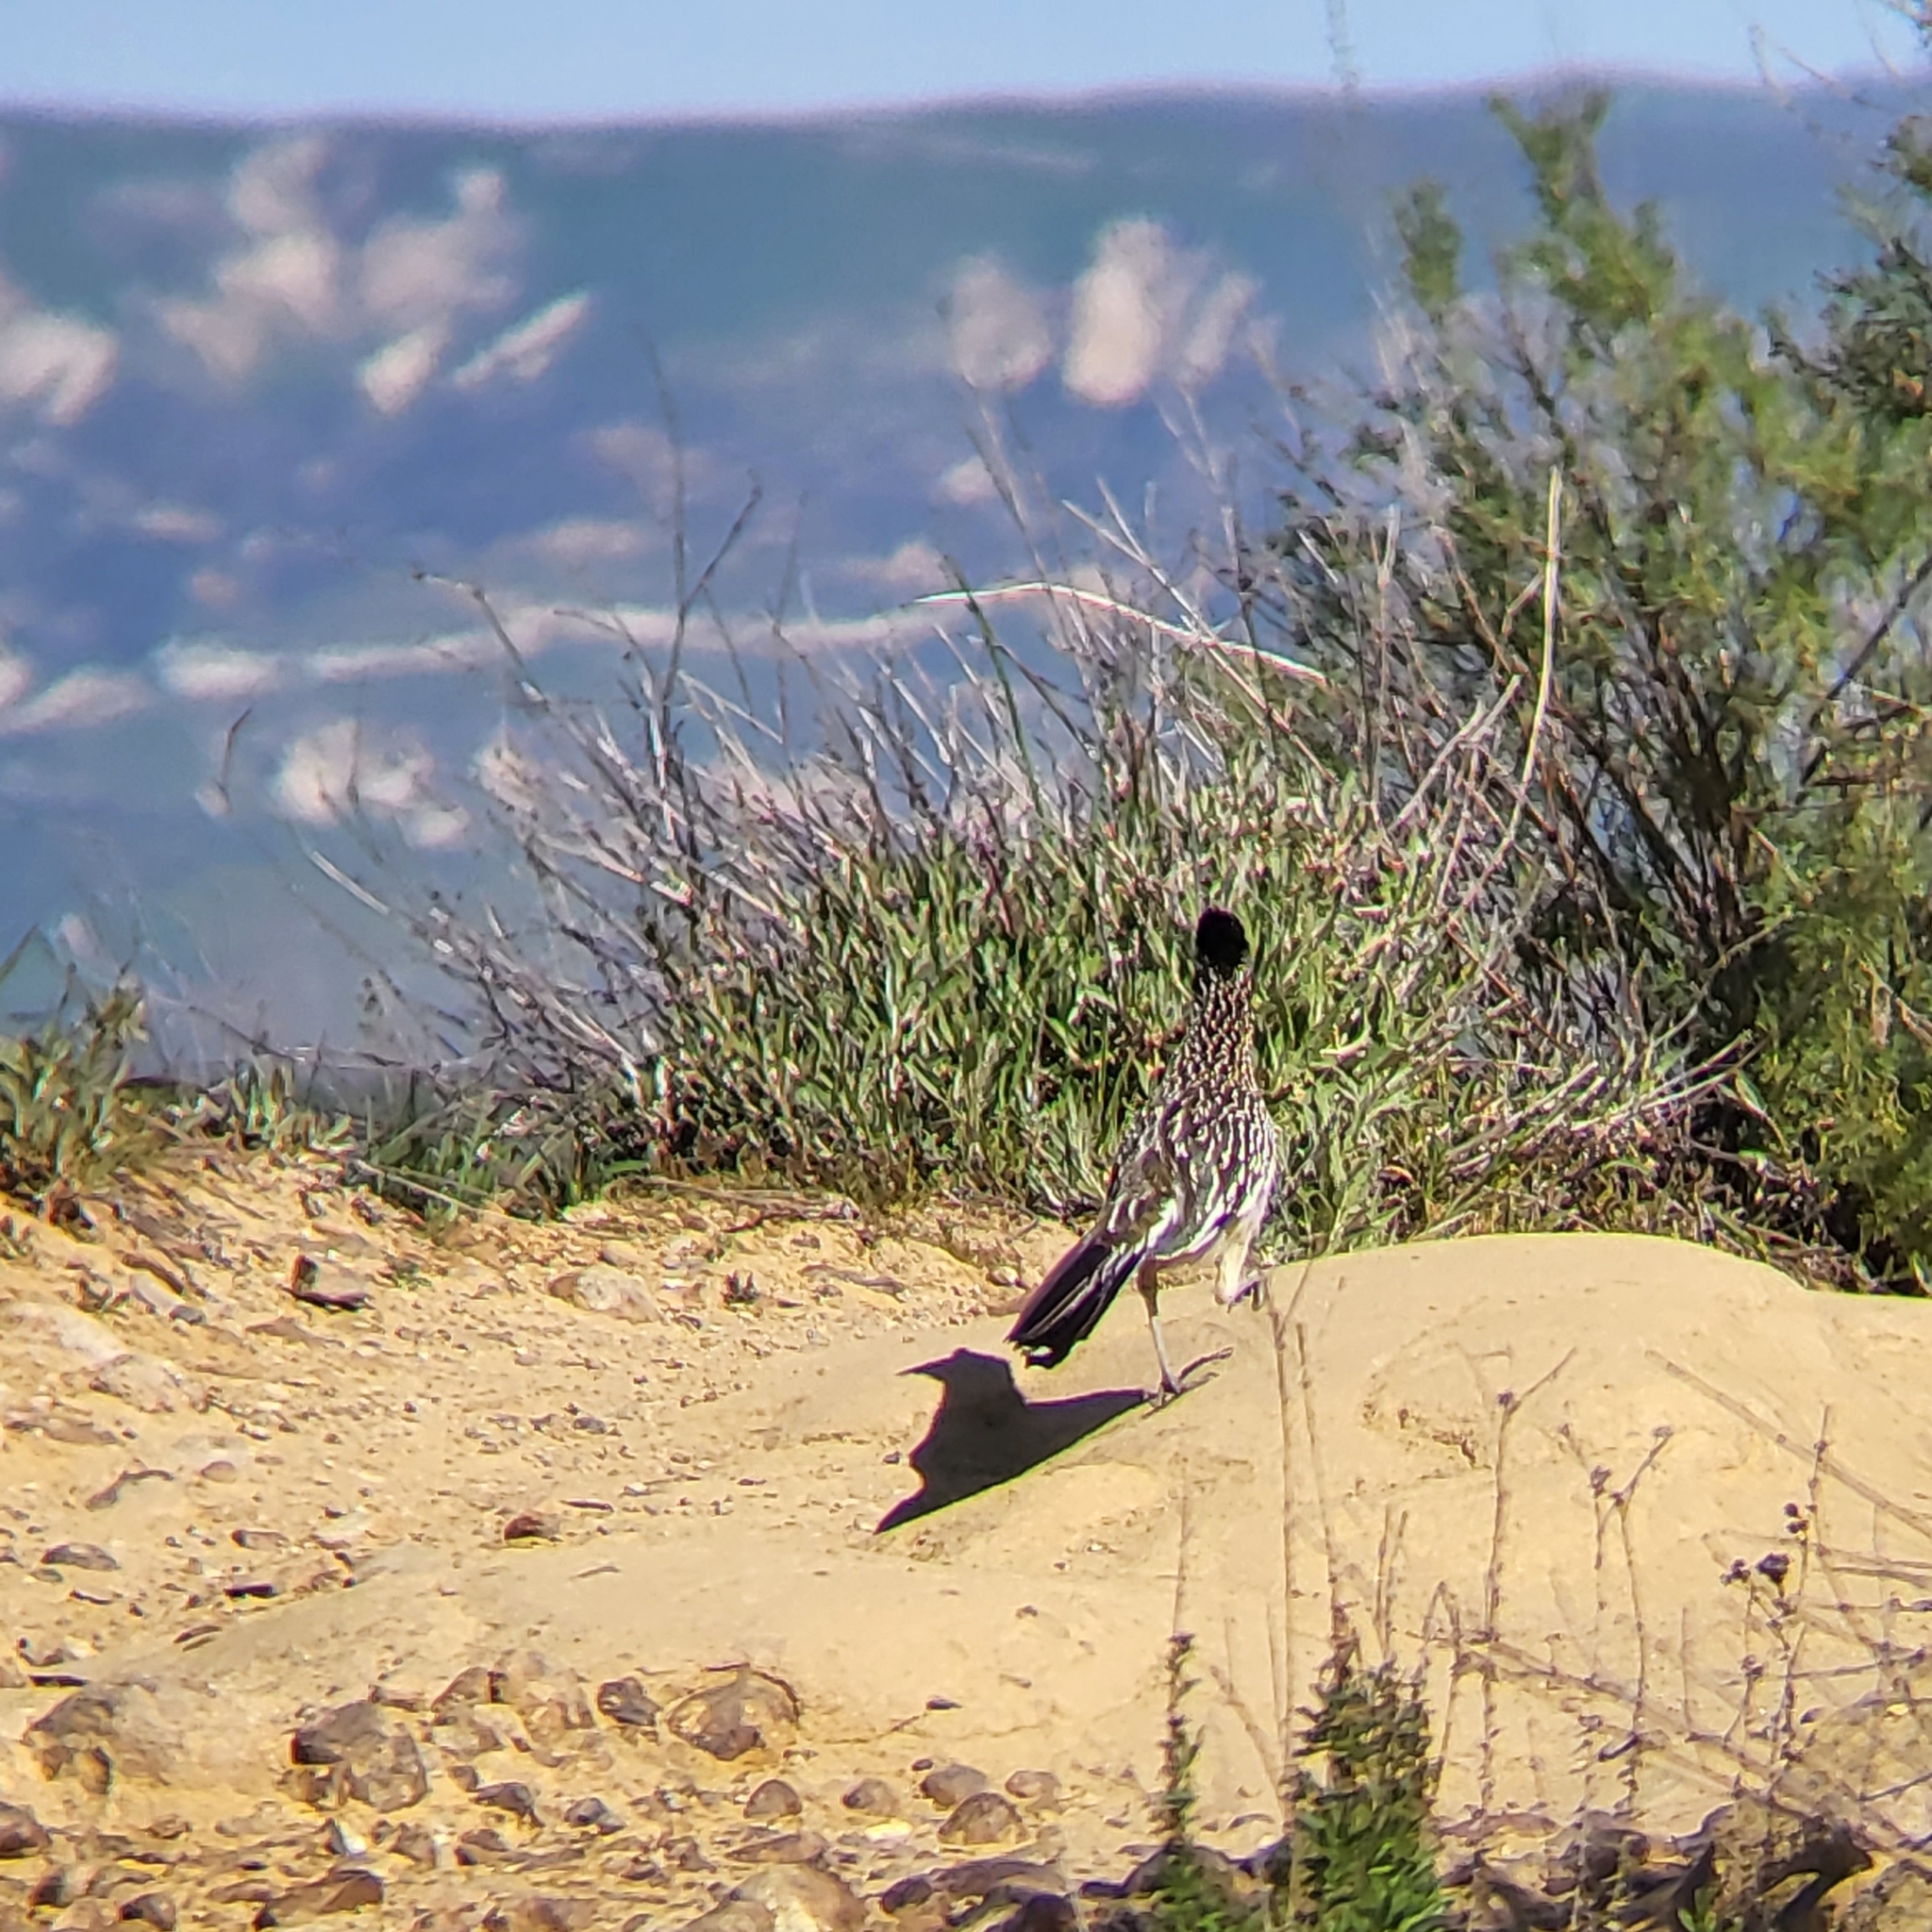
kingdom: Animalia
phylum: Chordata
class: Aves
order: Cuculiformes
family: Cuculidae
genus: Geococcyx
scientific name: Geococcyx californianus
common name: Greater roadrunner
